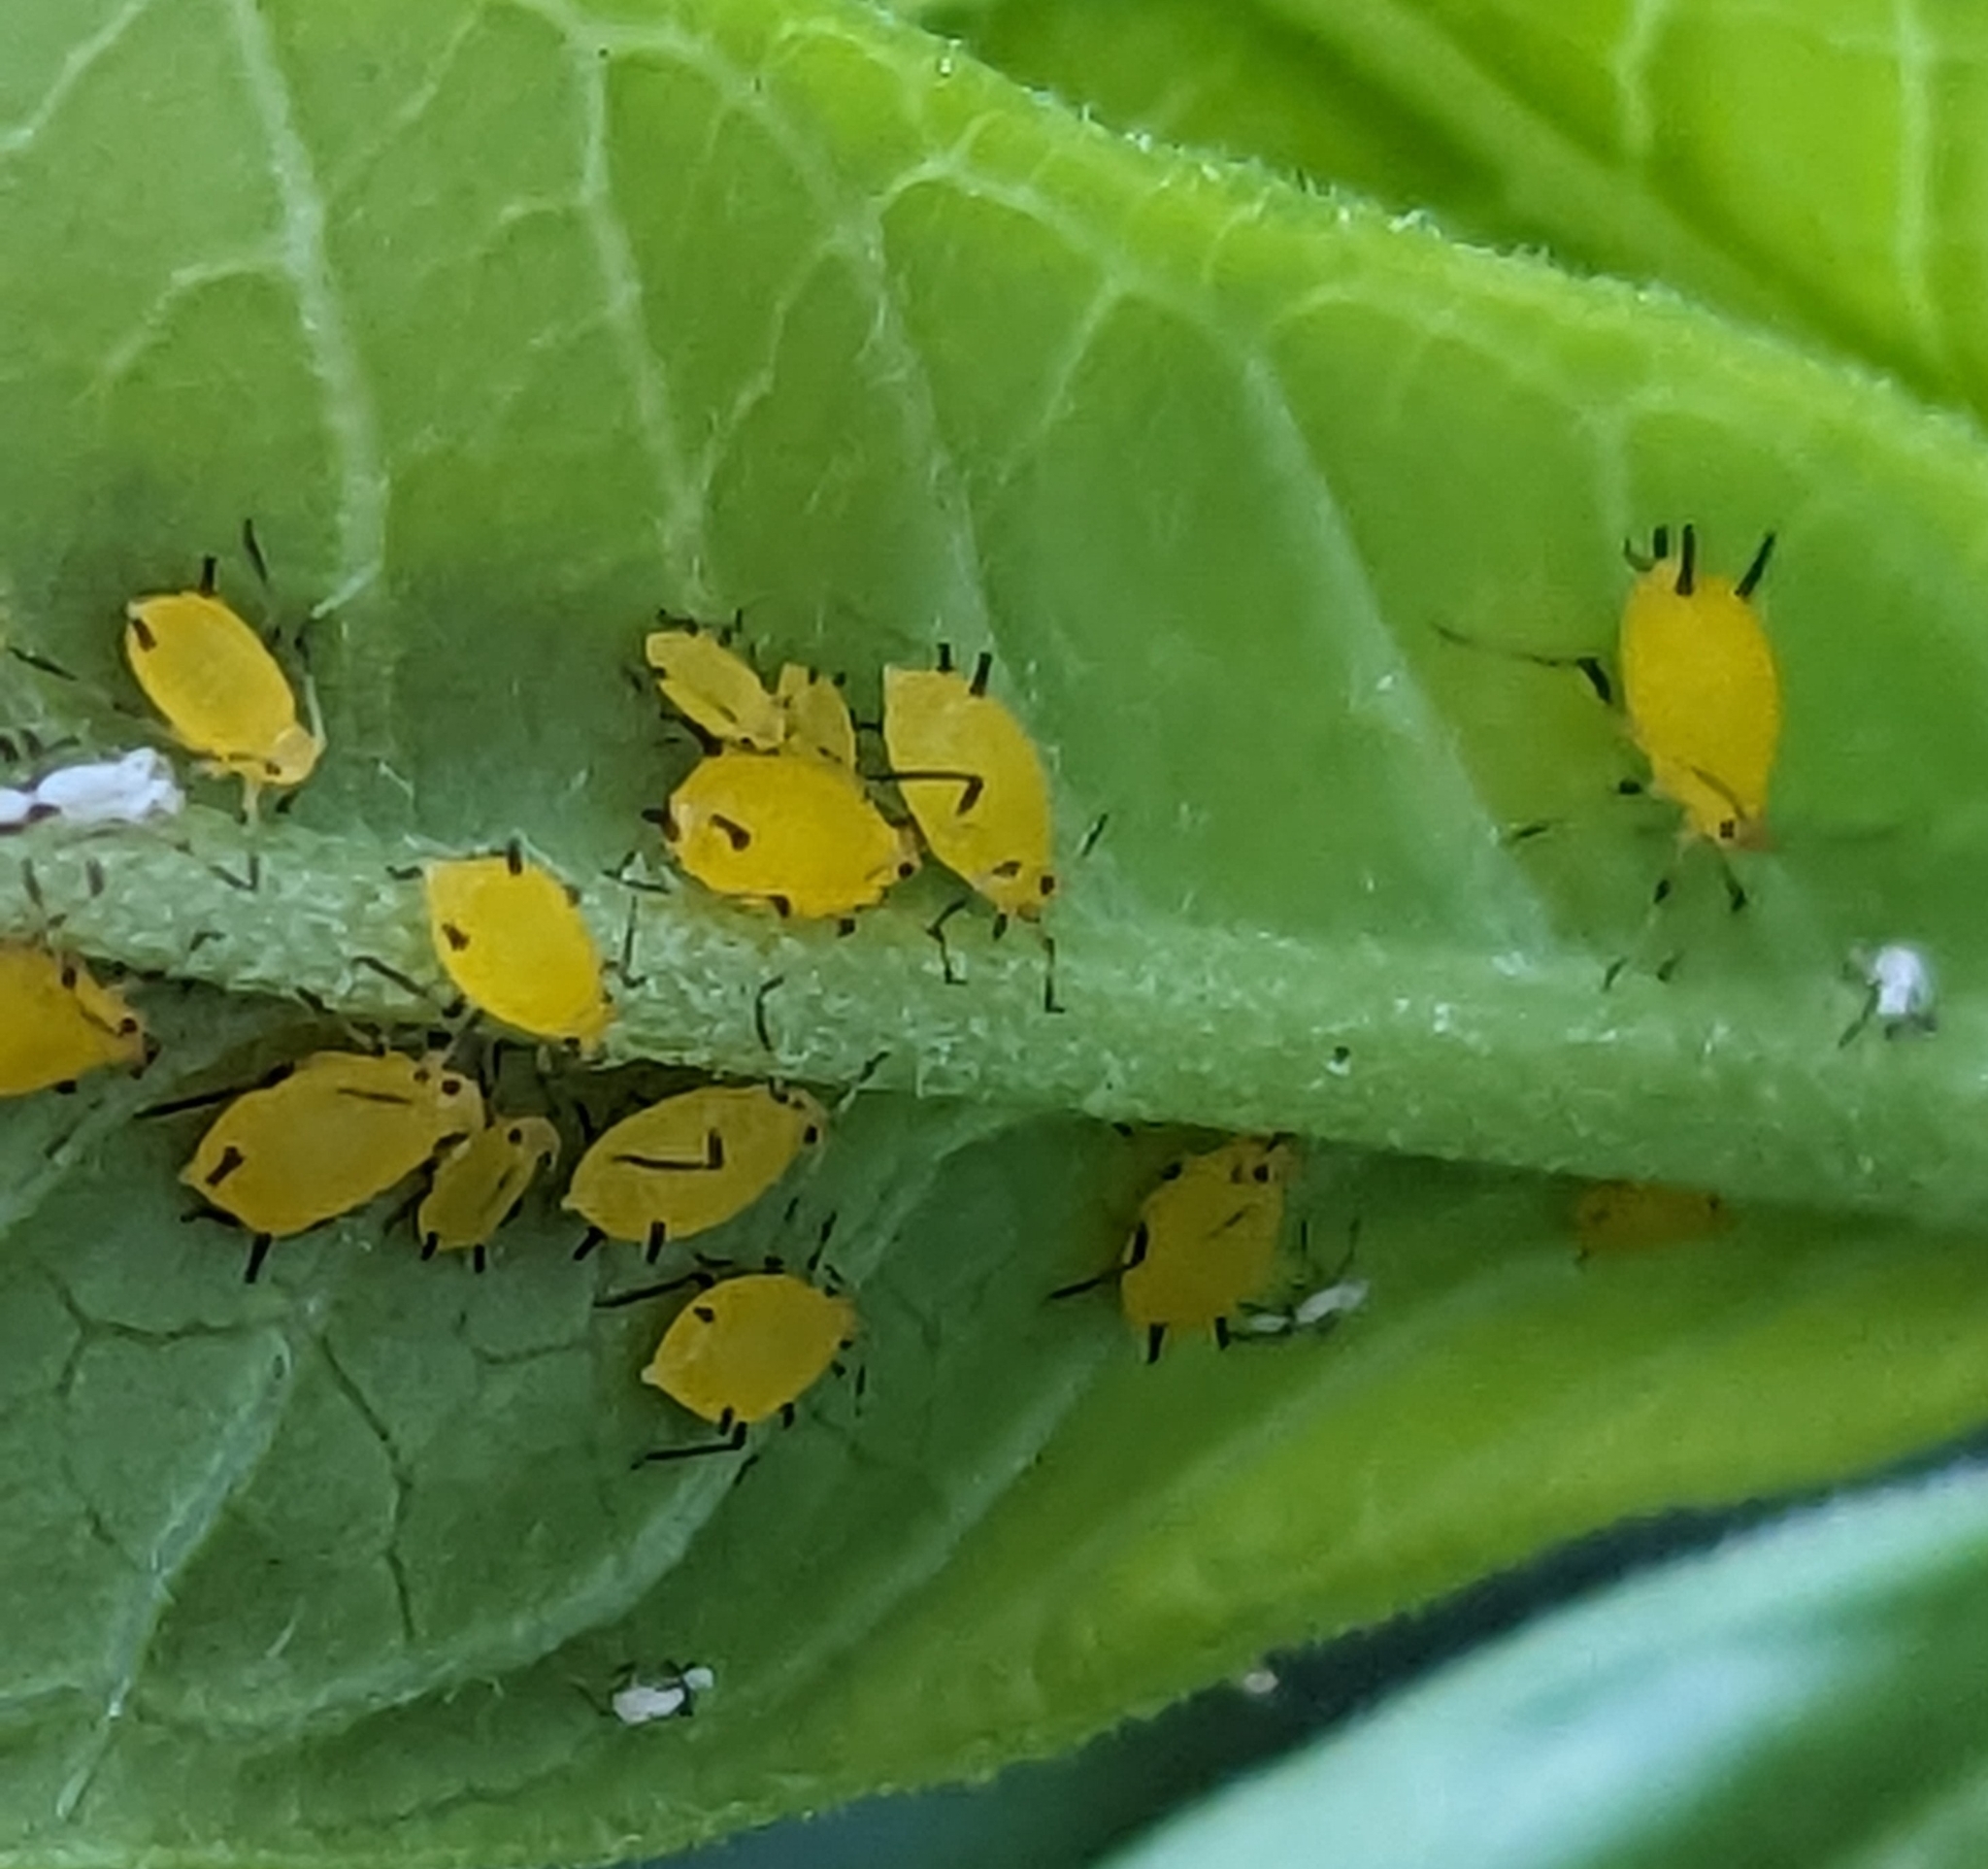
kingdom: Animalia
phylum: Arthropoda
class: Insecta
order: Hemiptera
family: Aphididae
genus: Aphis
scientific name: Aphis nerii
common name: Oleander aphid
